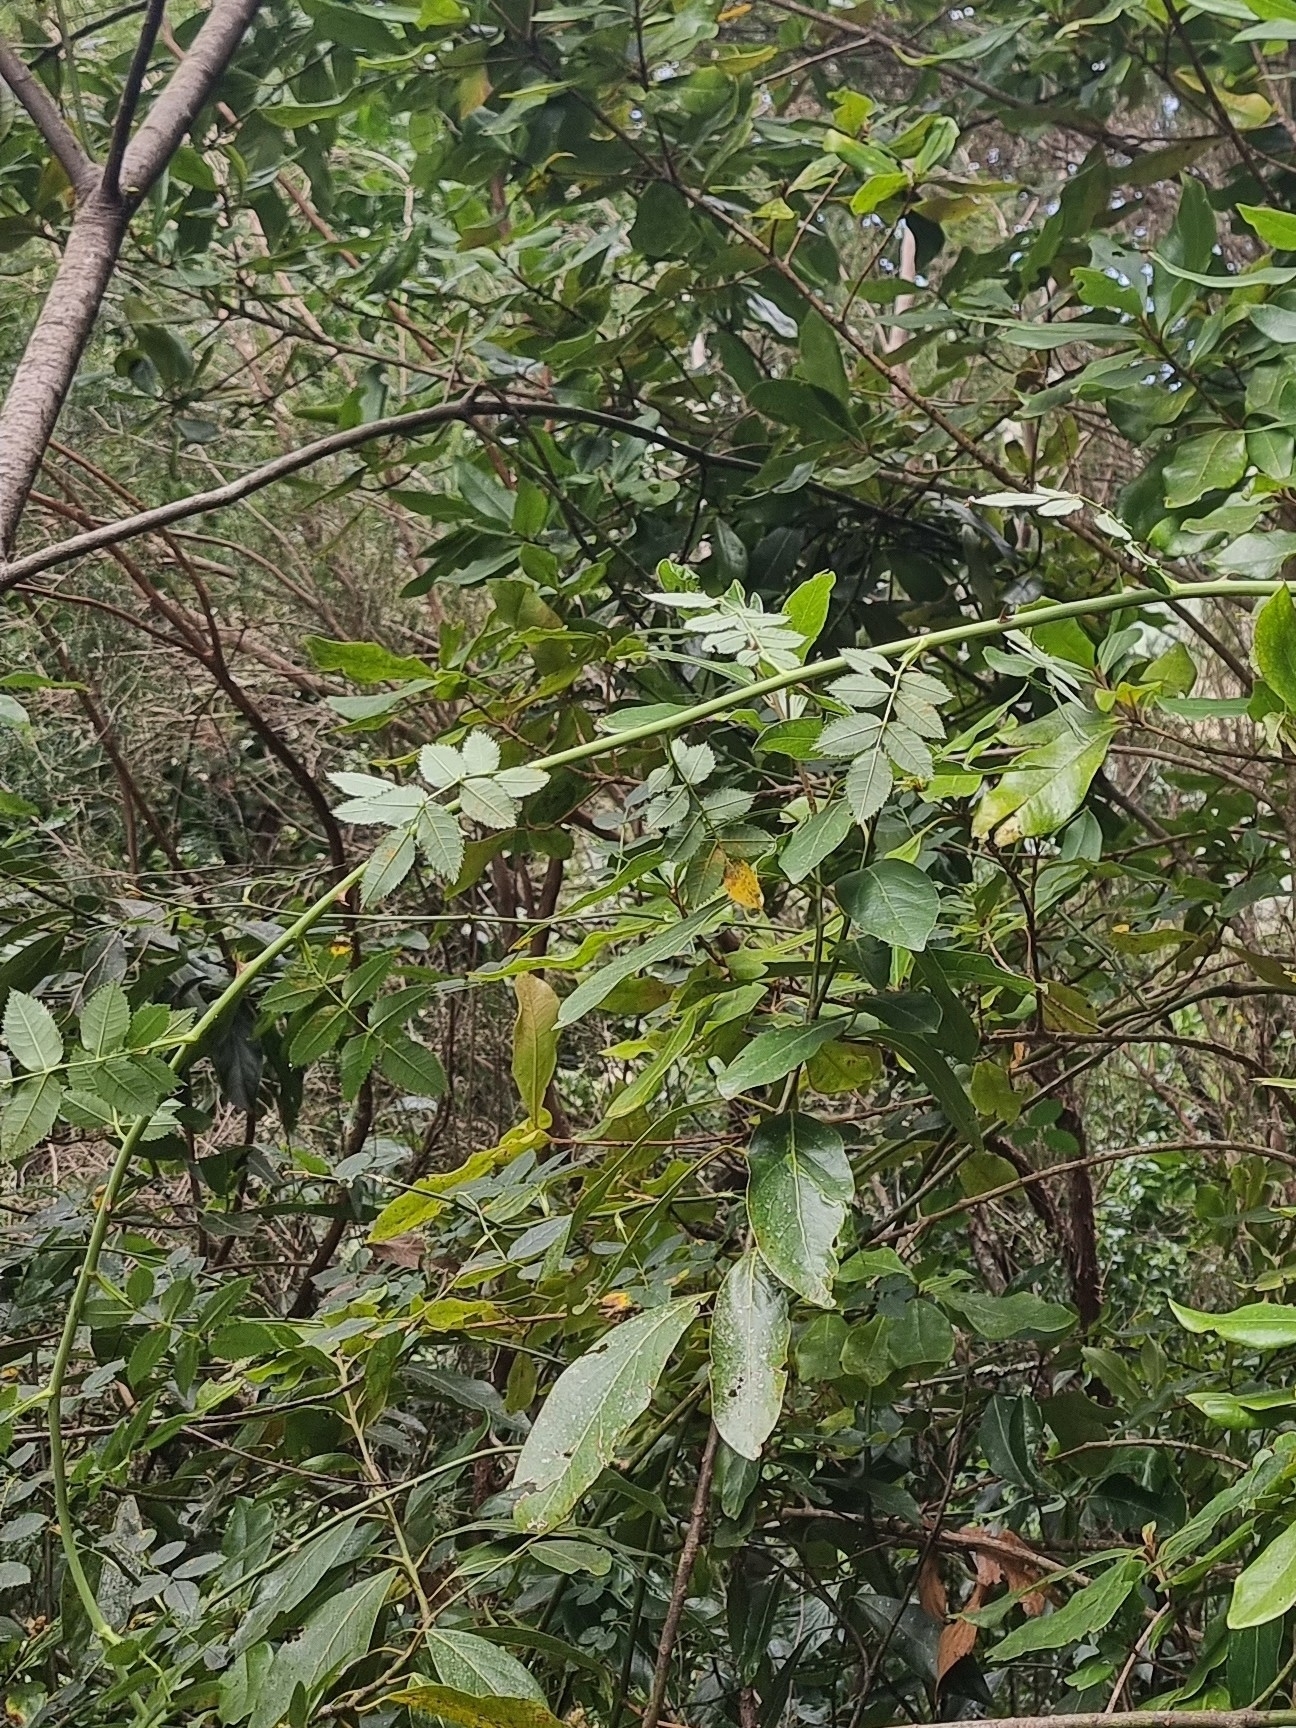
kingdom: Plantae
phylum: Tracheophyta
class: Magnoliopsida
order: Rosales
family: Rosaceae
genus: Rosa
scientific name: Rosa canina
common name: Dog rose
